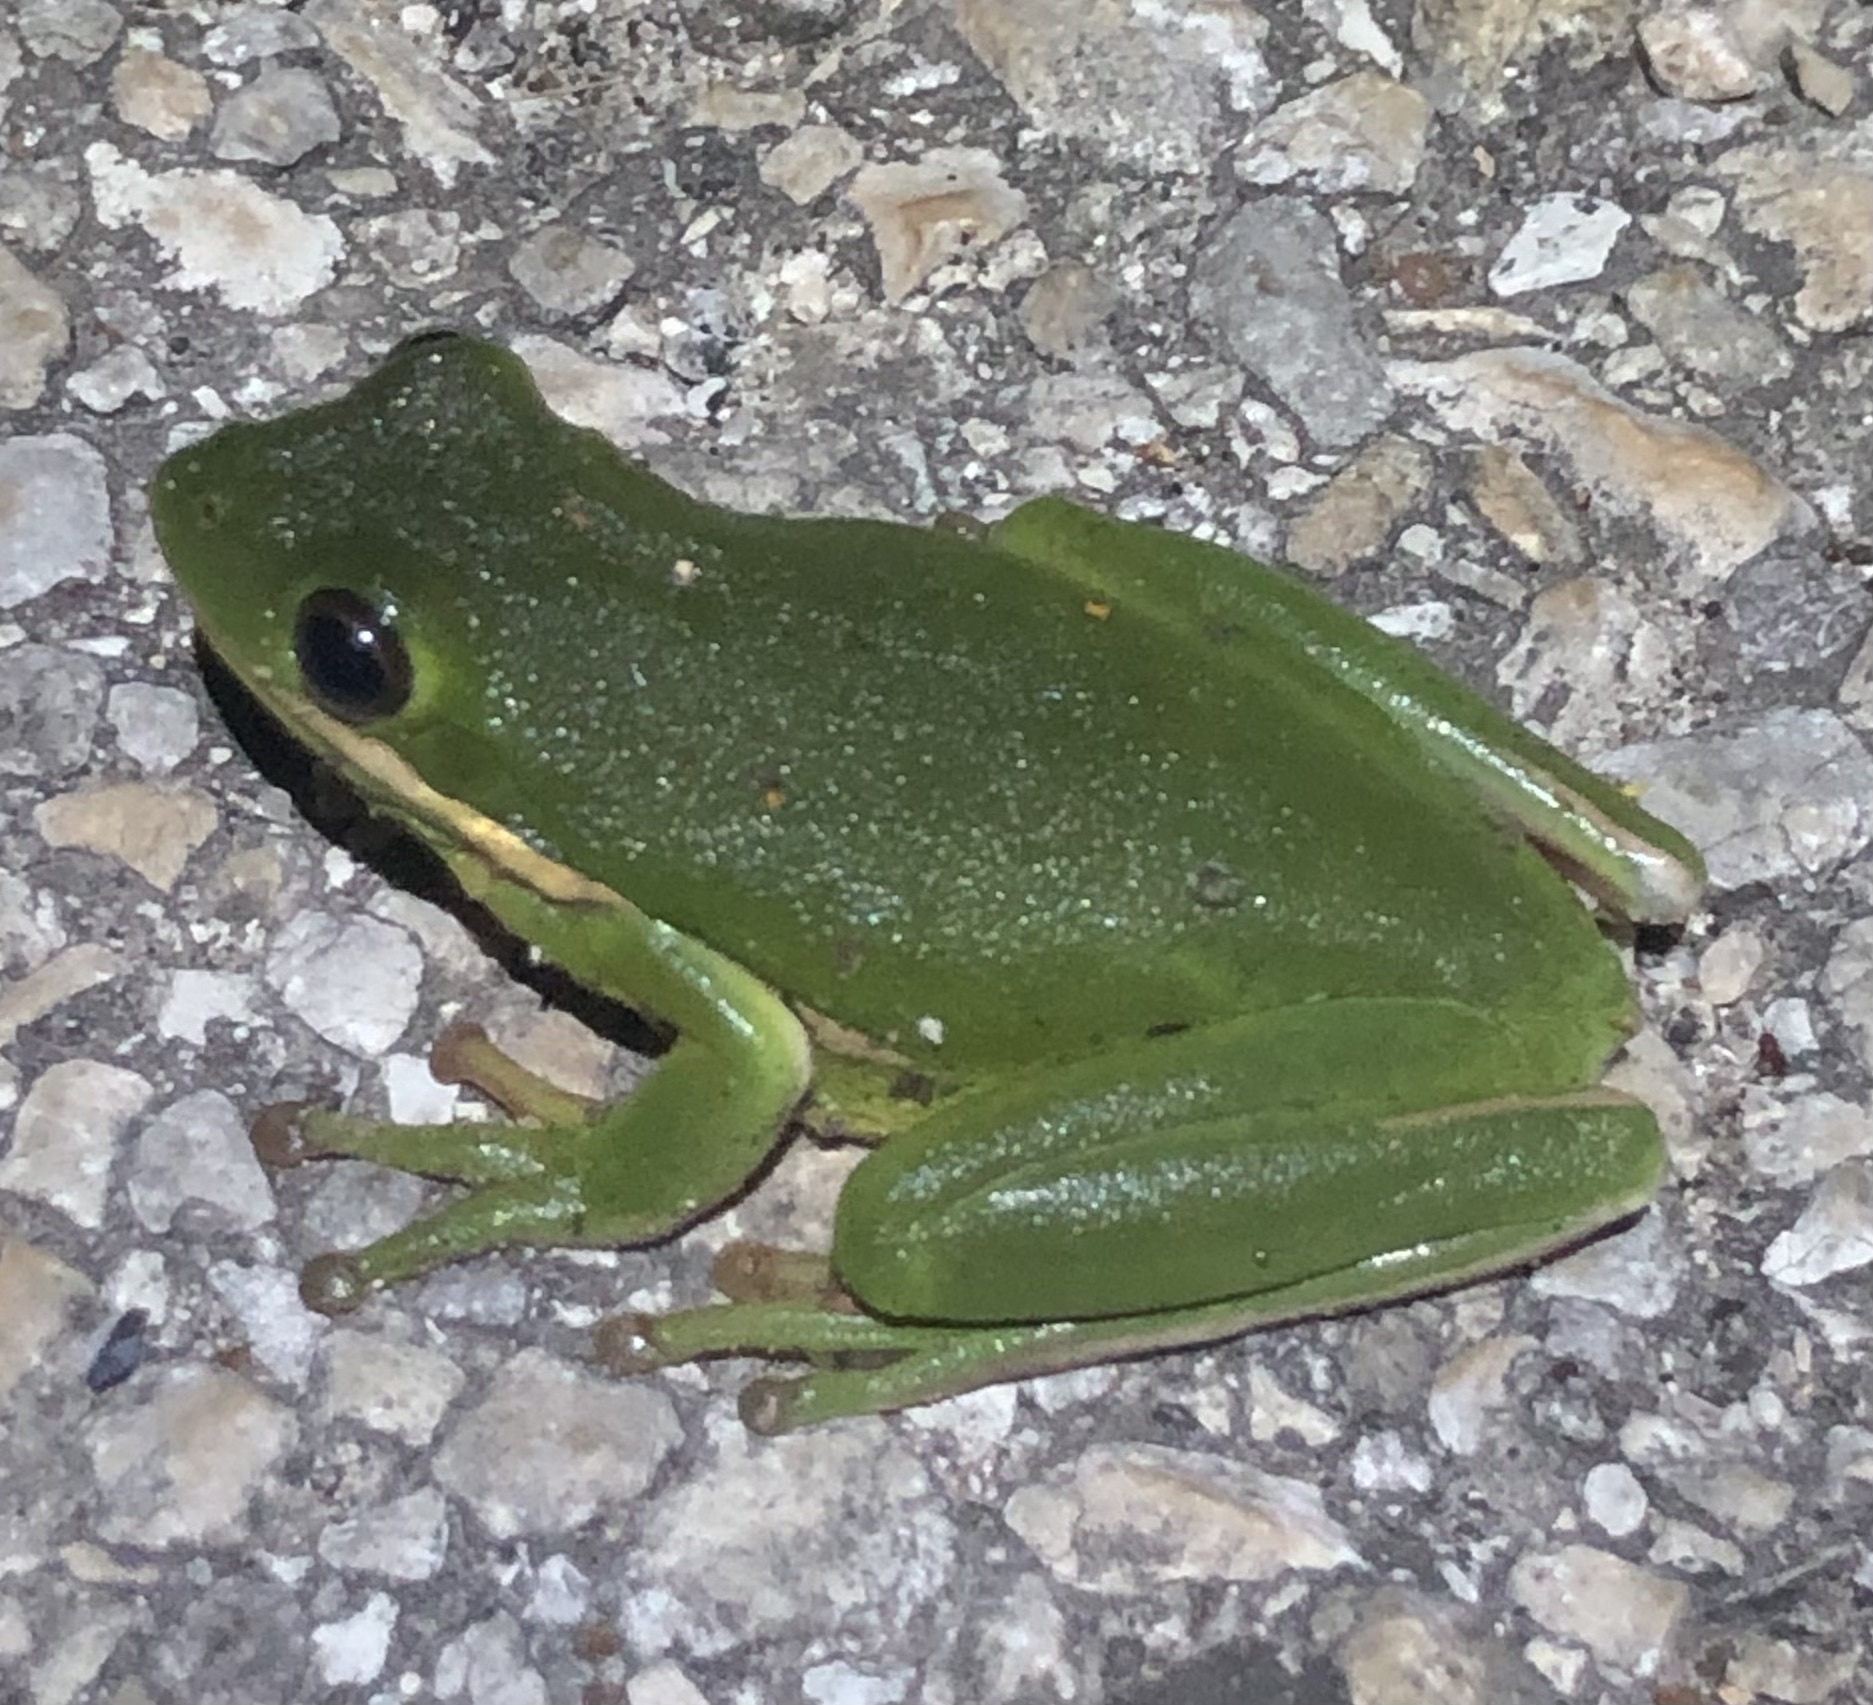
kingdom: Animalia
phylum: Chordata
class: Amphibia
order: Anura
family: Hylidae
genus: Dryophytes
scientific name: Dryophytes cinereus
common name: Green treefrog
